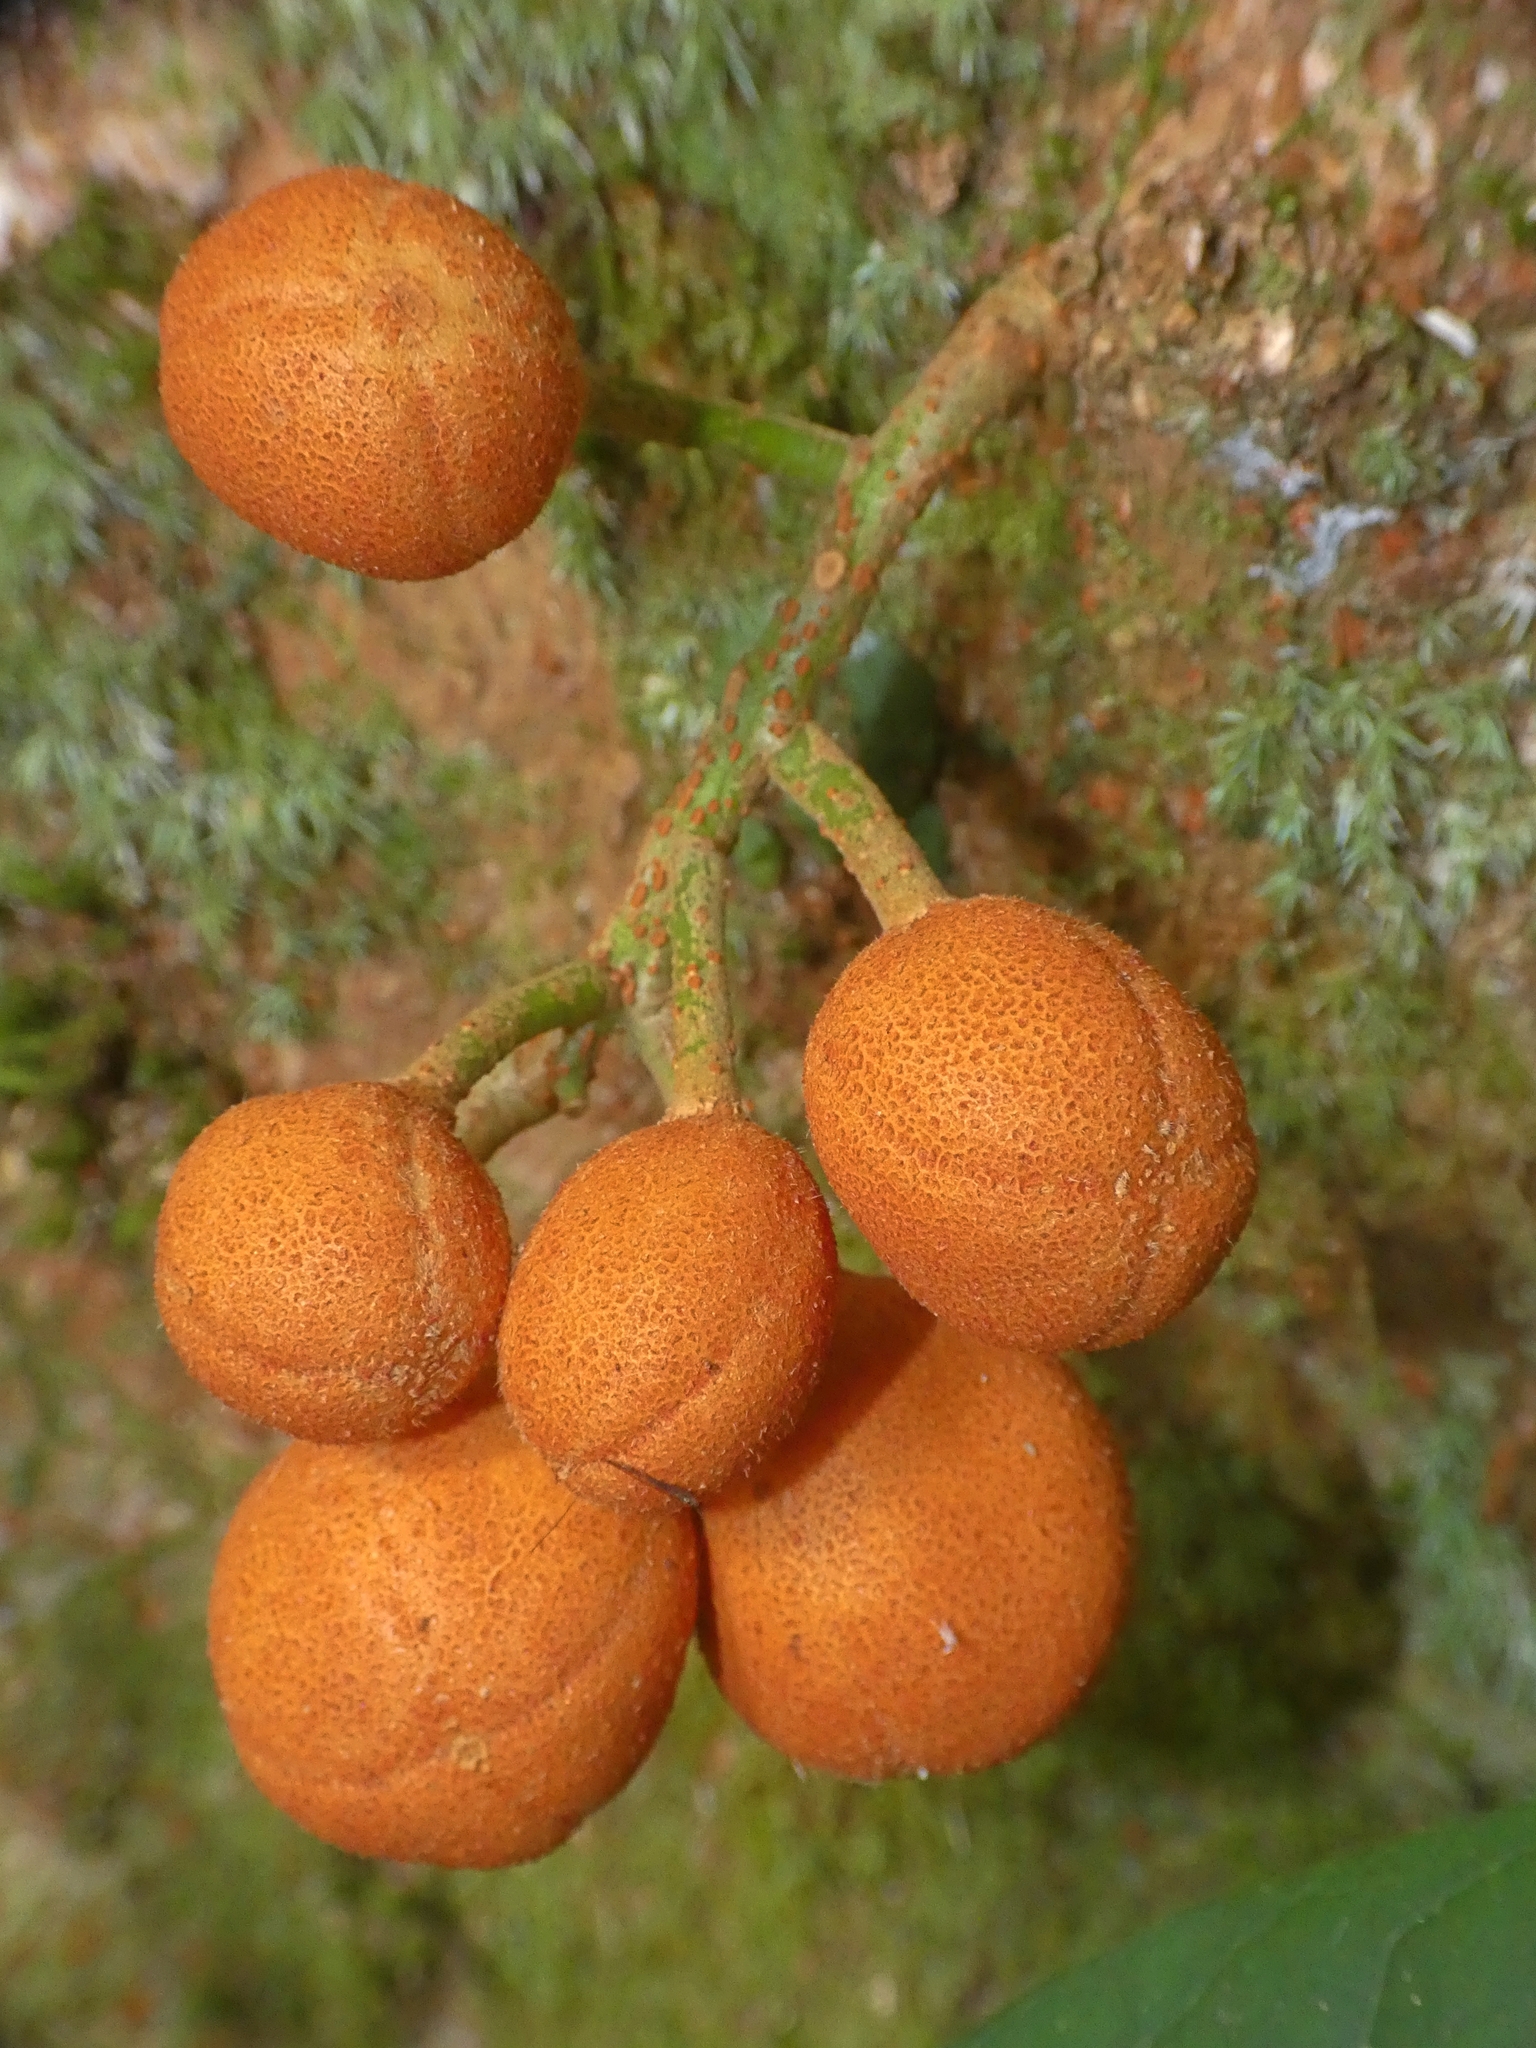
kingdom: Plantae
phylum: Tracheophyta
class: Magnoliopsida
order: Sapindales
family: Meliaceae
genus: Epicharis
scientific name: Epicharis parasitica
